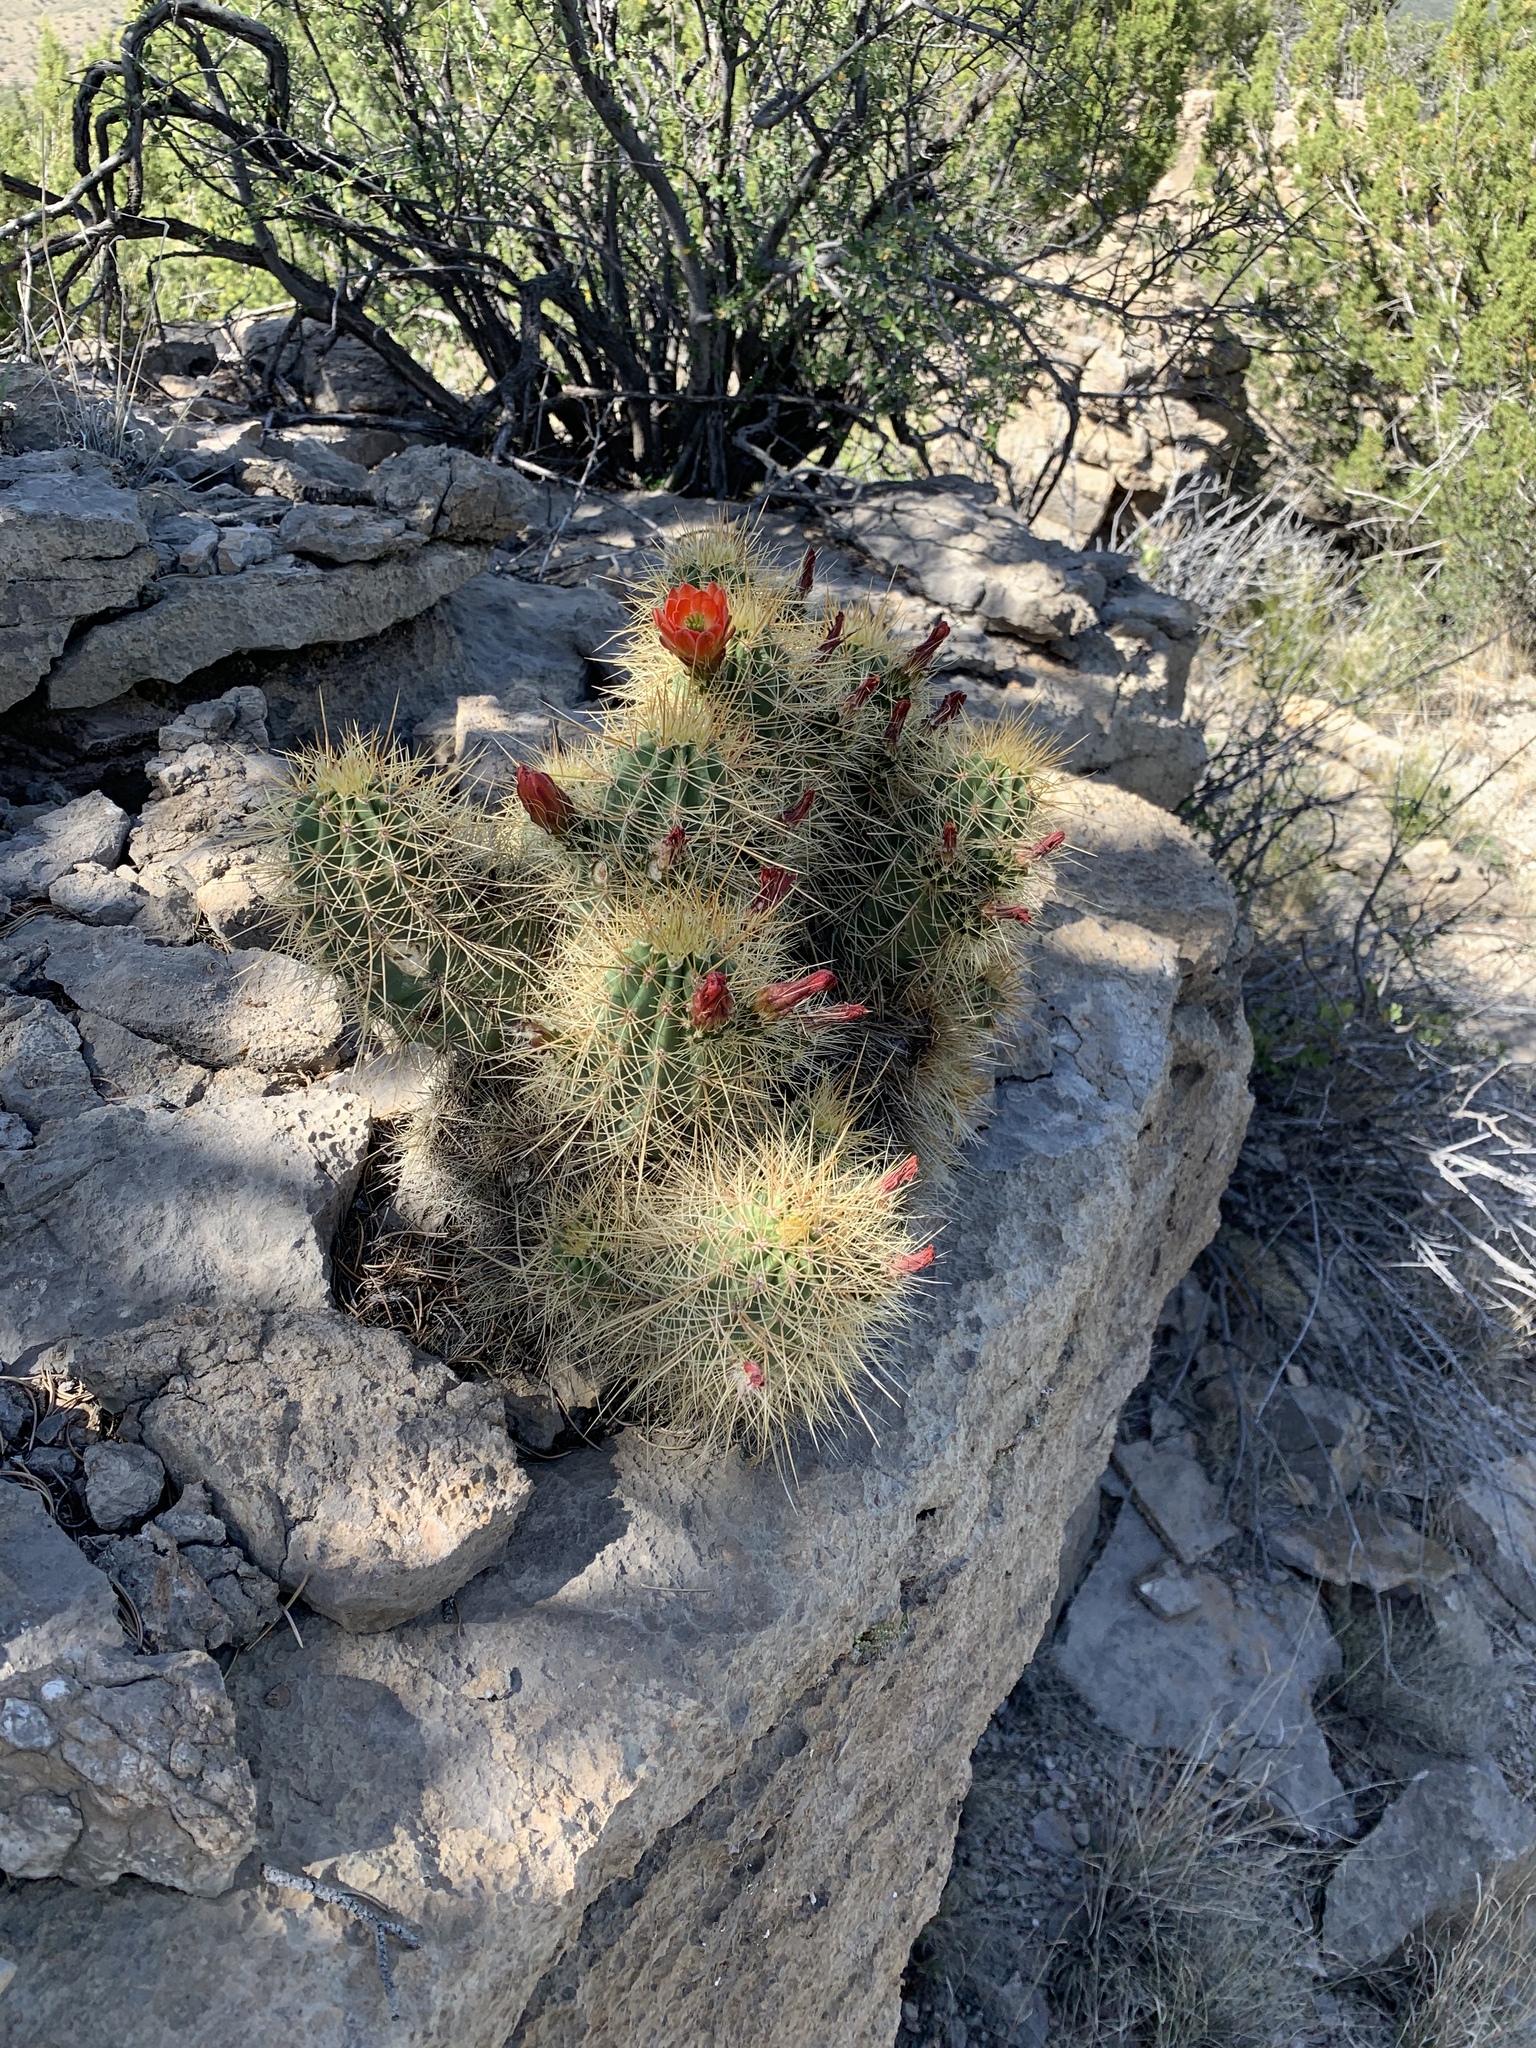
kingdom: Plantae
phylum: Tracheophyta
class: Magnoliopsida
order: Caryophyllales
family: Cactaceae
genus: Echinocereus
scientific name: Echinocereus coccineus
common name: Scarlet hedgehog cactus
